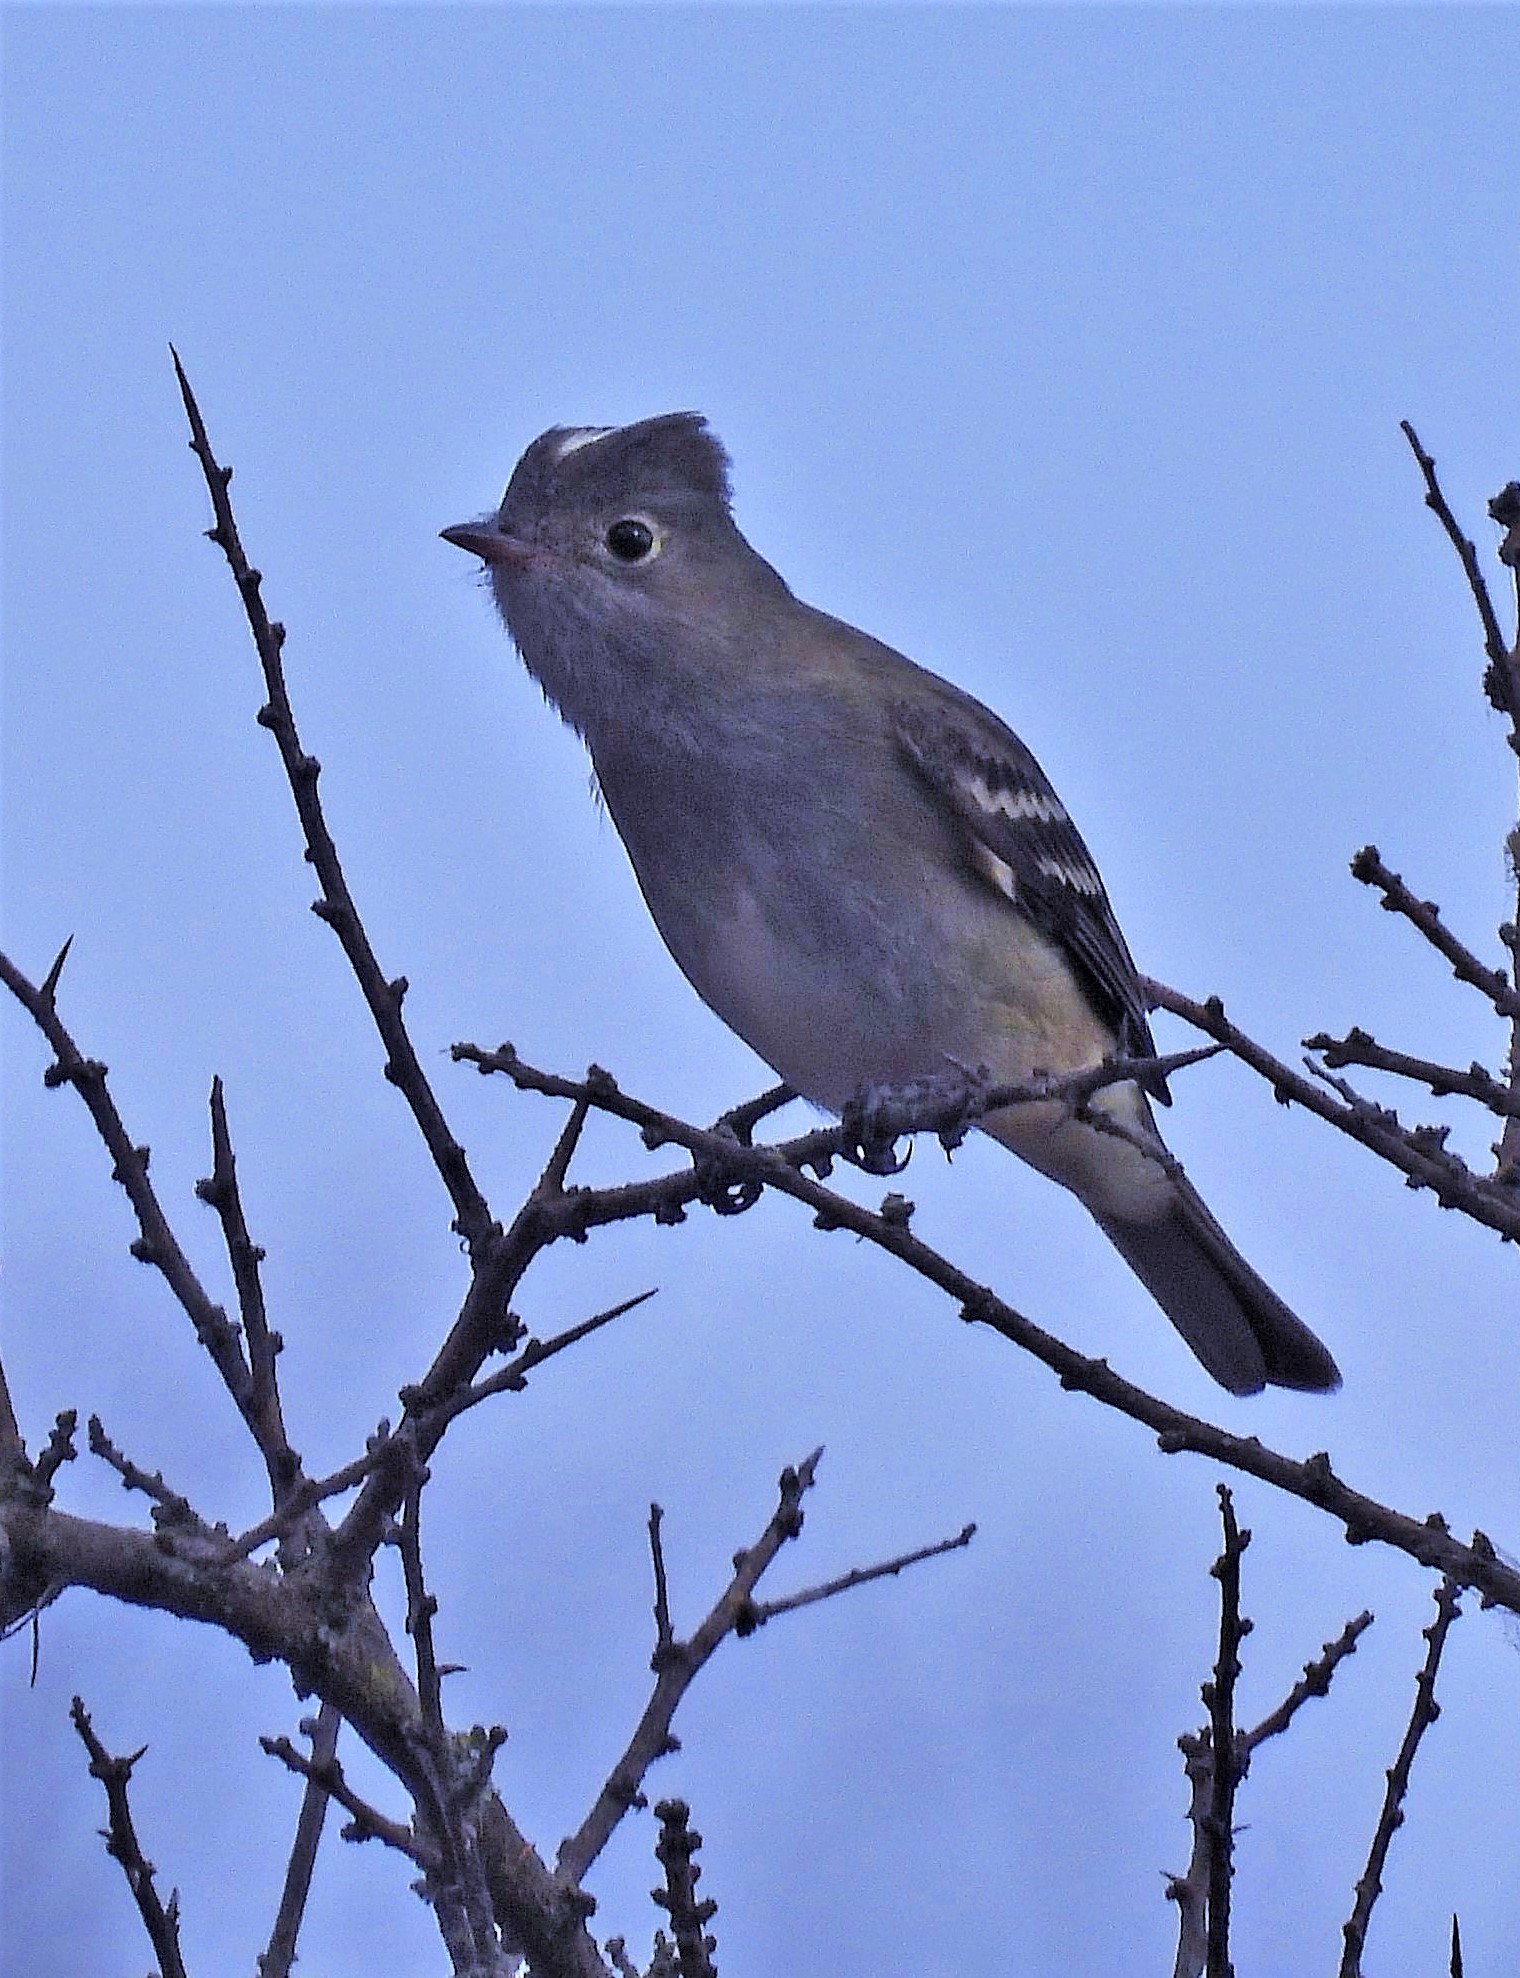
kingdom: Animalia
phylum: Chordata
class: Aves
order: Passeriformes
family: Tyrannidae
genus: Elaenia
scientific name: Elaenia albiceps
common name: White-crested elaenia
